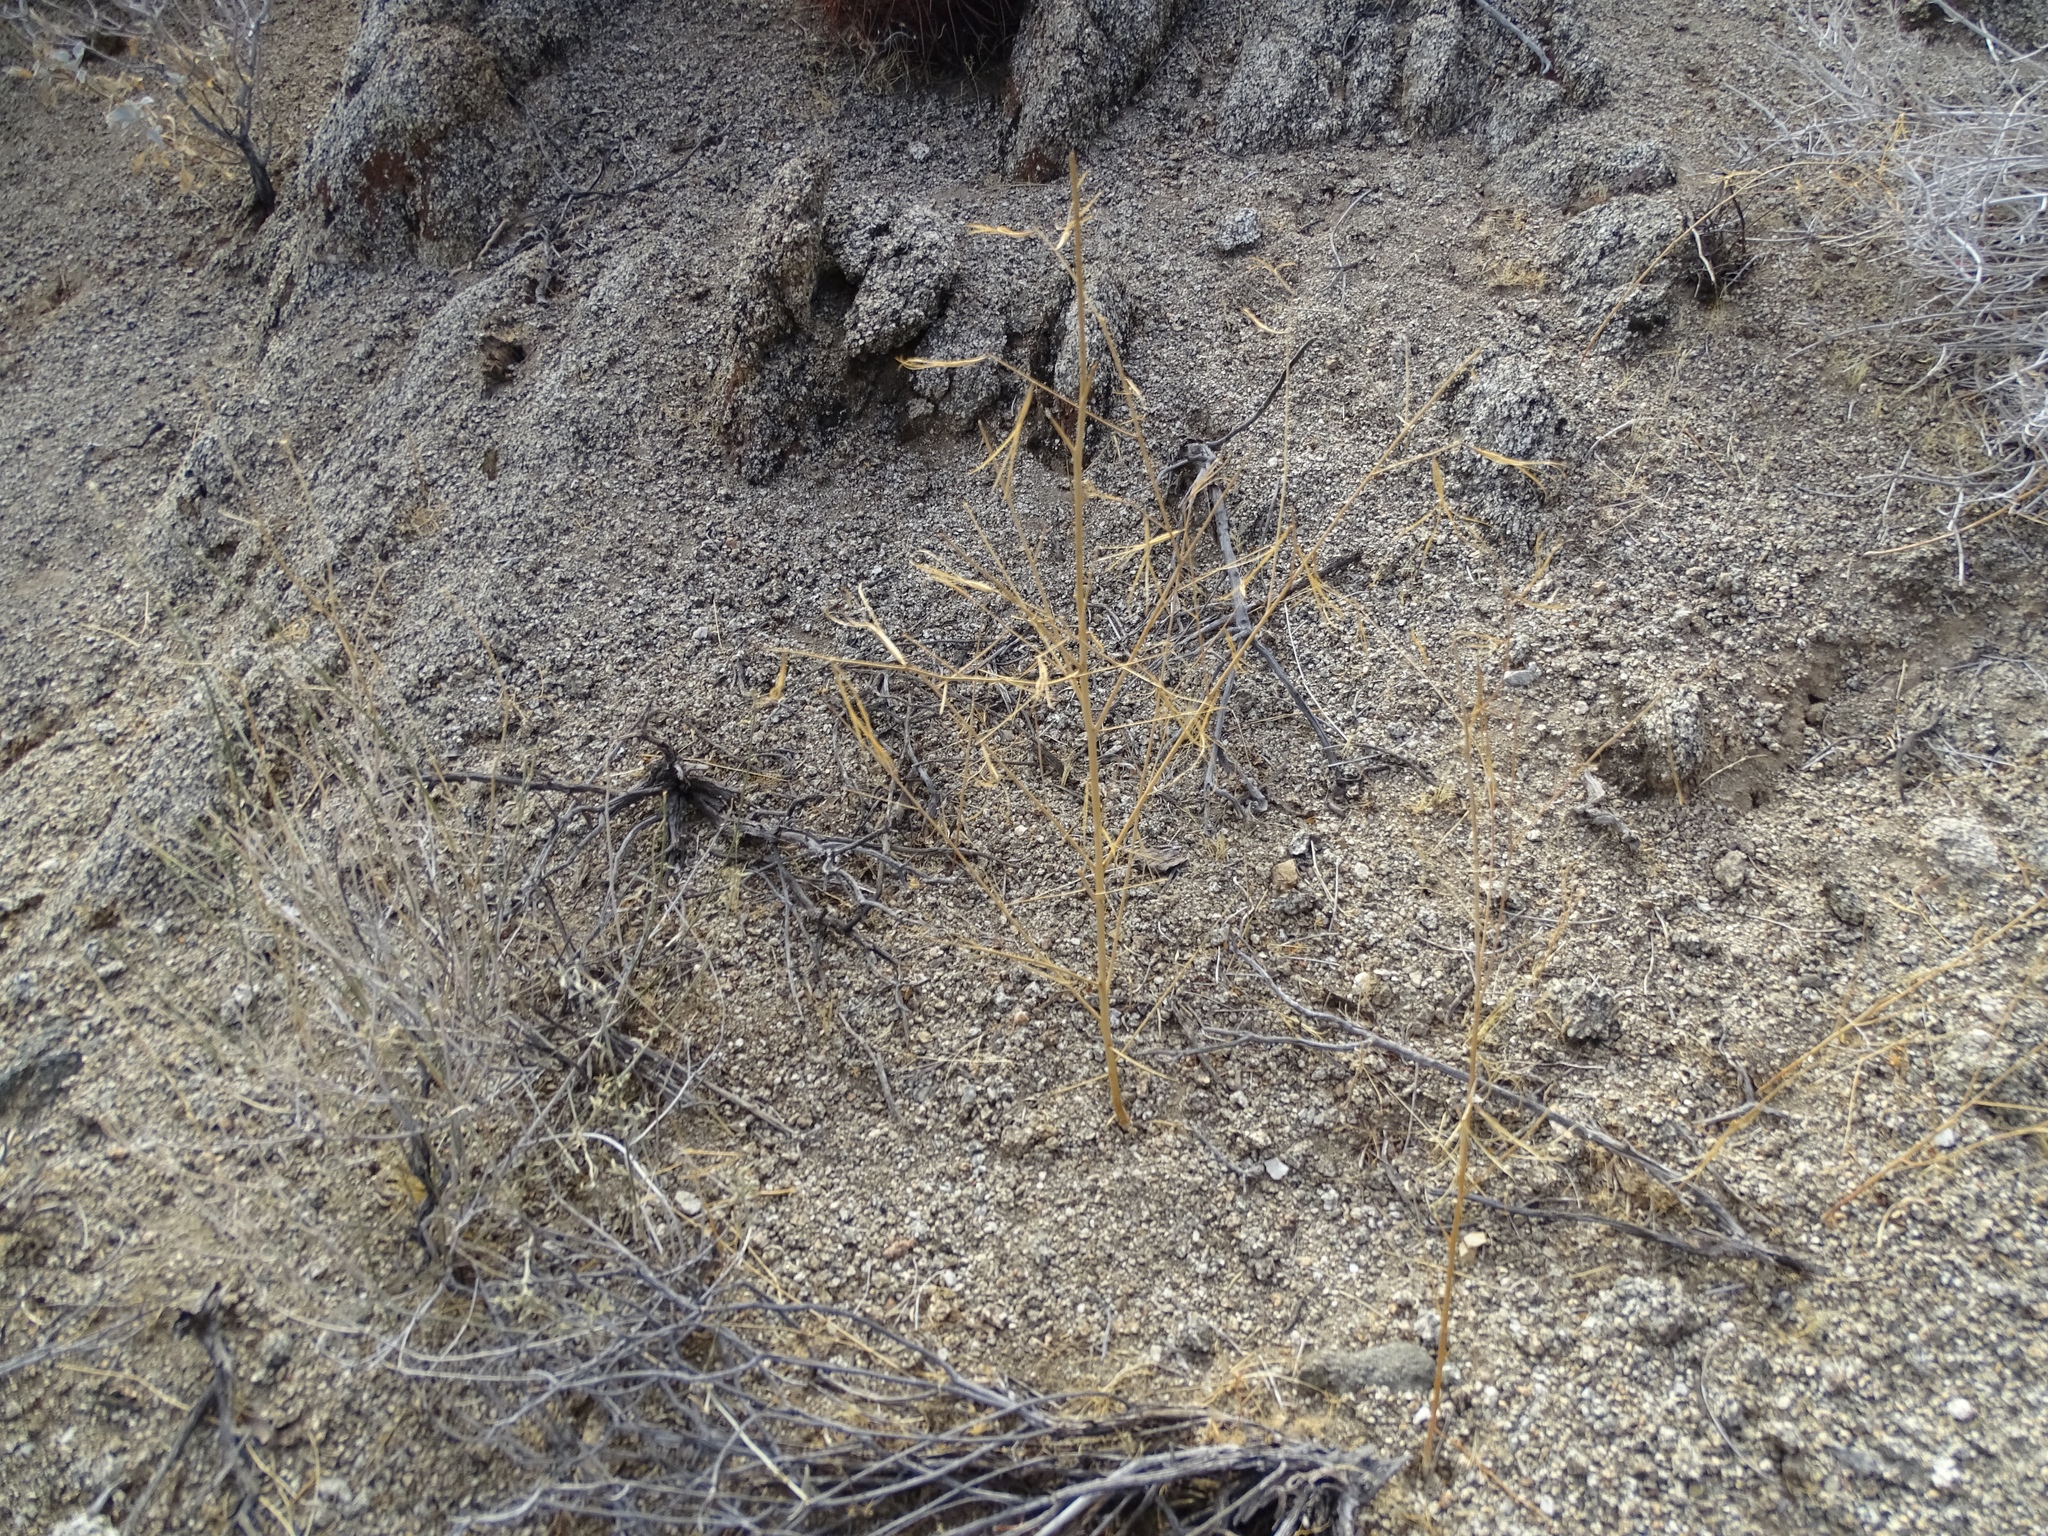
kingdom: Plantae
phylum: Tracheophyta
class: Magnoliopsida
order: Myrtales
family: Onagraceae
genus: Eulobus
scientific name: Eulobus californicus
